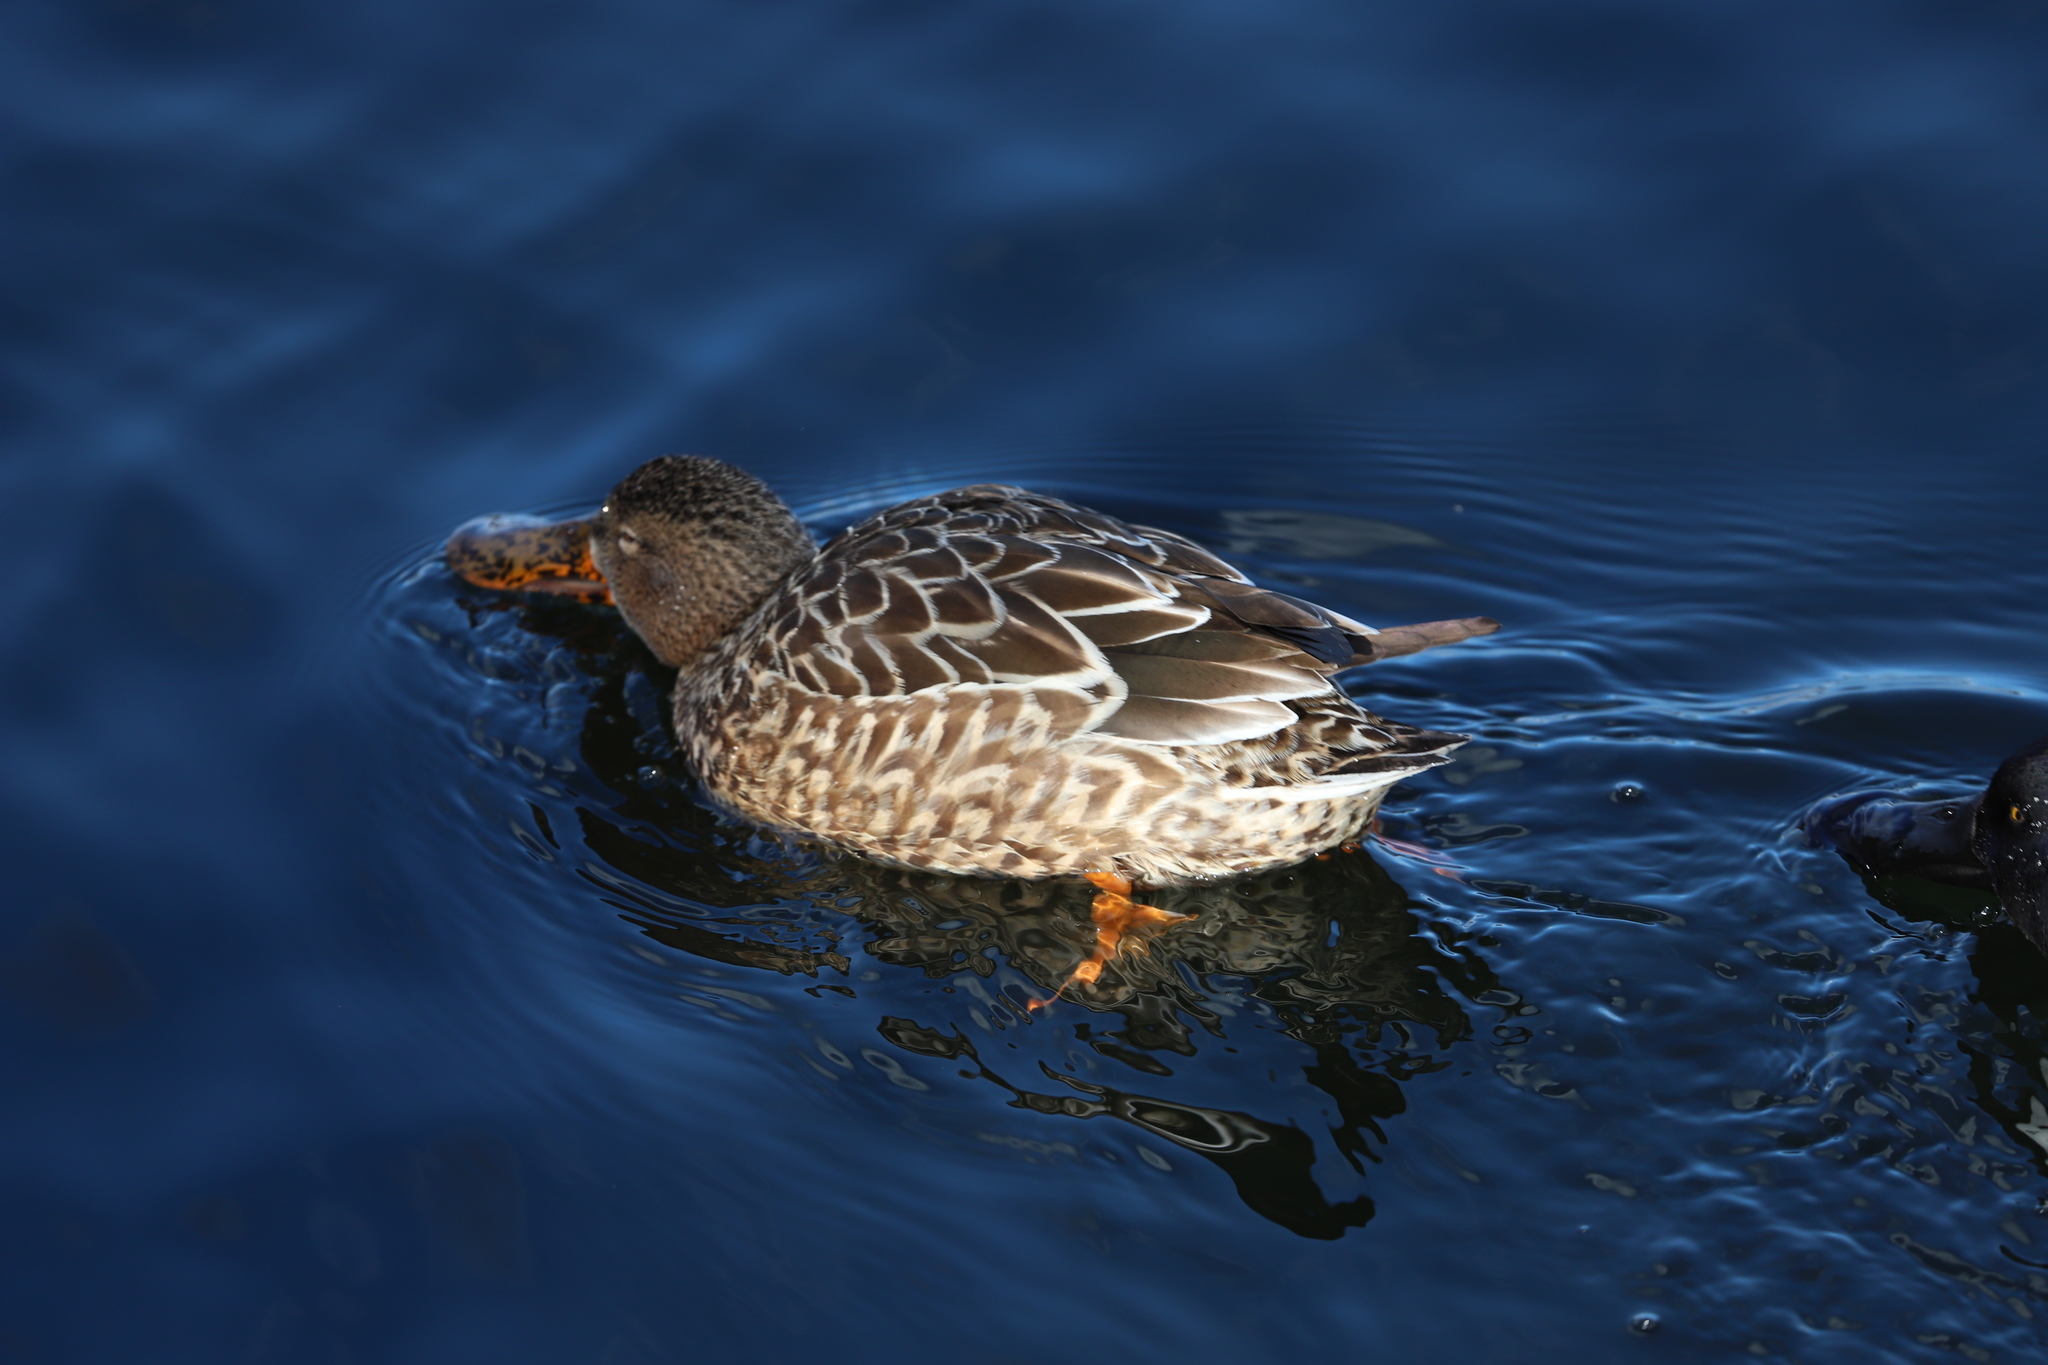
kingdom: Animalia
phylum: Chordata
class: Aves
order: Anseriformes
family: Anatidae
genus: Spatula
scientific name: Spatula clypeata
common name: Northern shoveler
